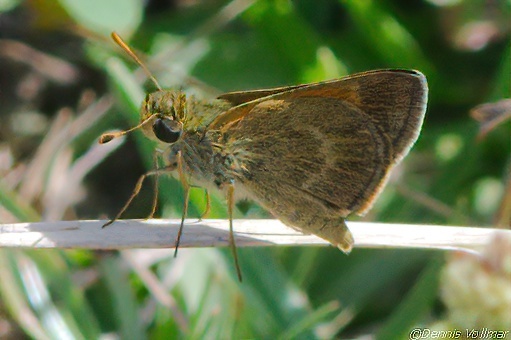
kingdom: Animalia
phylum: Arthropoda
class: Insecta
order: Lepidoptera
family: Hesperiidae
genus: Polites
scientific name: Polites baracoa
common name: Baracoa skipper
